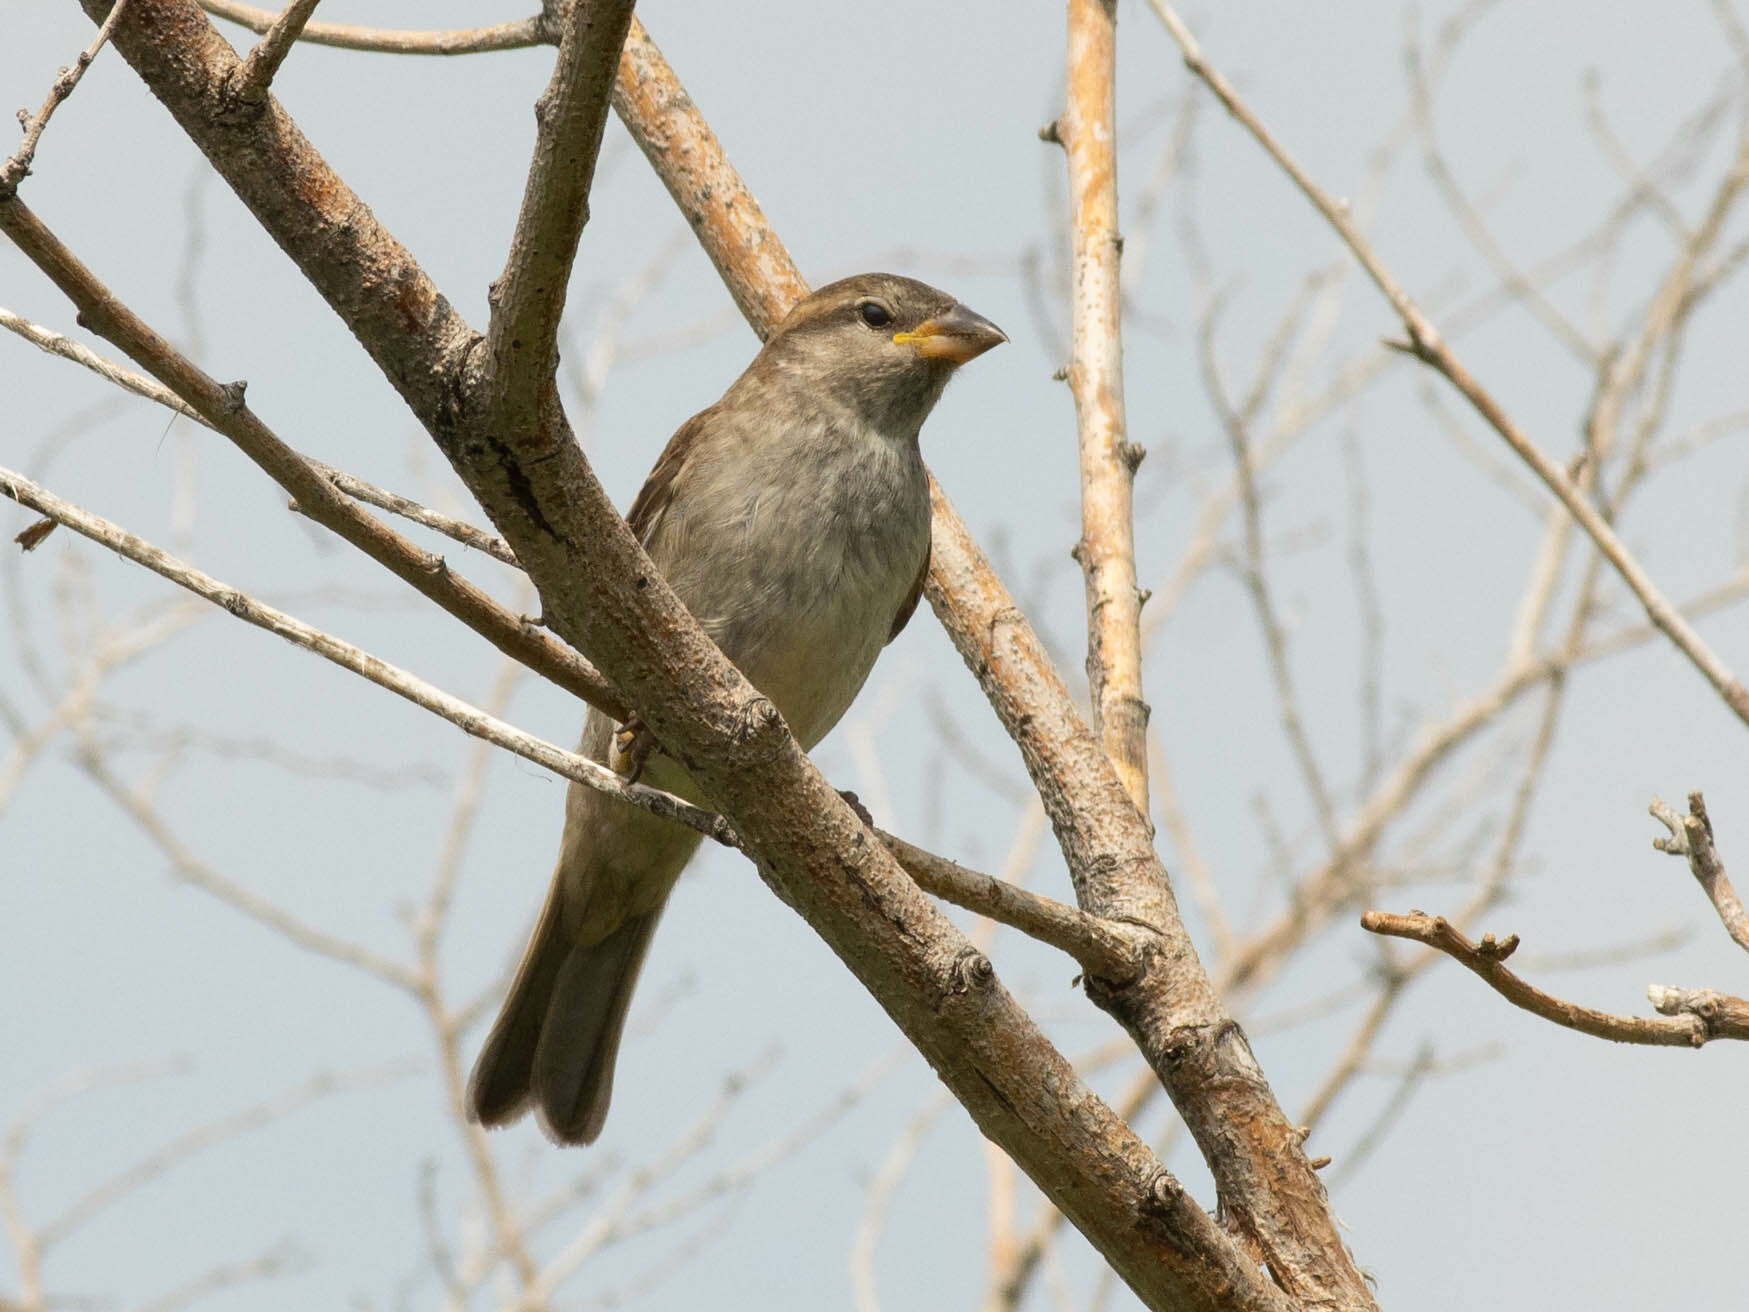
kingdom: Animalia
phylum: Chordata
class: Aves
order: Passeriformes
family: Passeridae
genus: Passer
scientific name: Passer domesticus
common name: House sparrow
